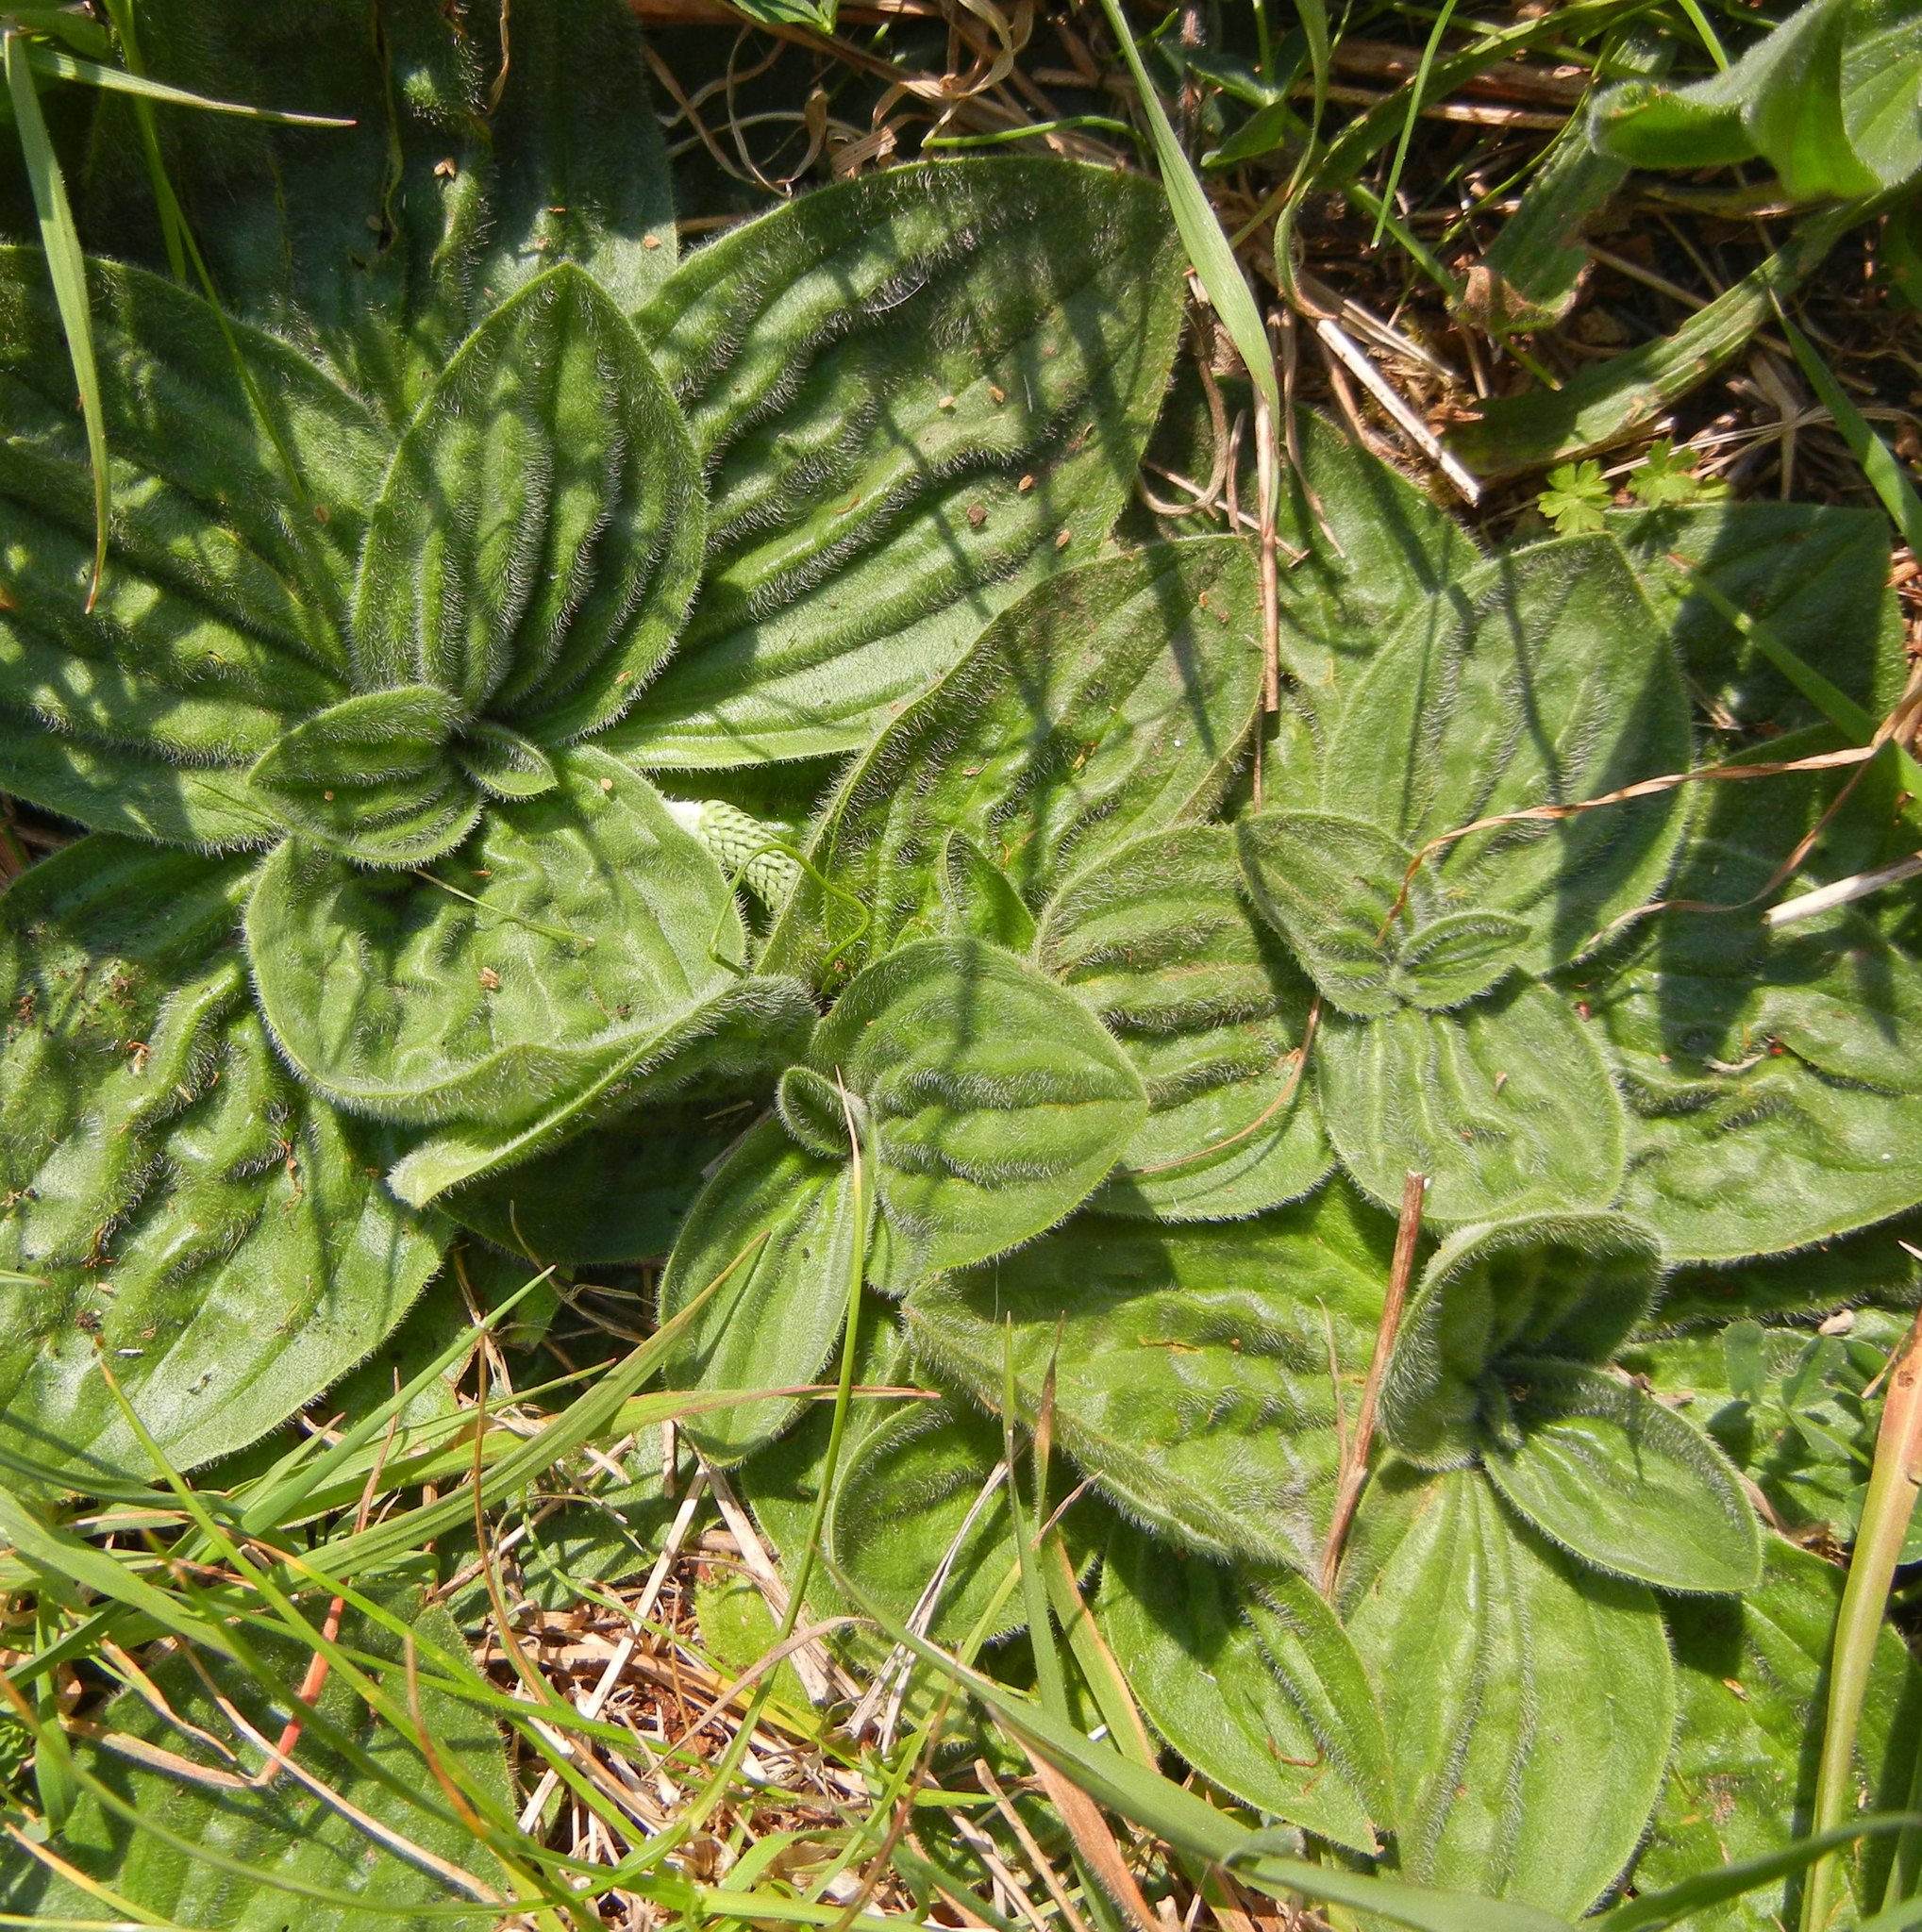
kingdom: Plantae
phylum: Tracheophyta
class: Magnoliopsida
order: Lamiales
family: Plantaginaceae
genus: Plantago
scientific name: Plantago media
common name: Hoary plantain
